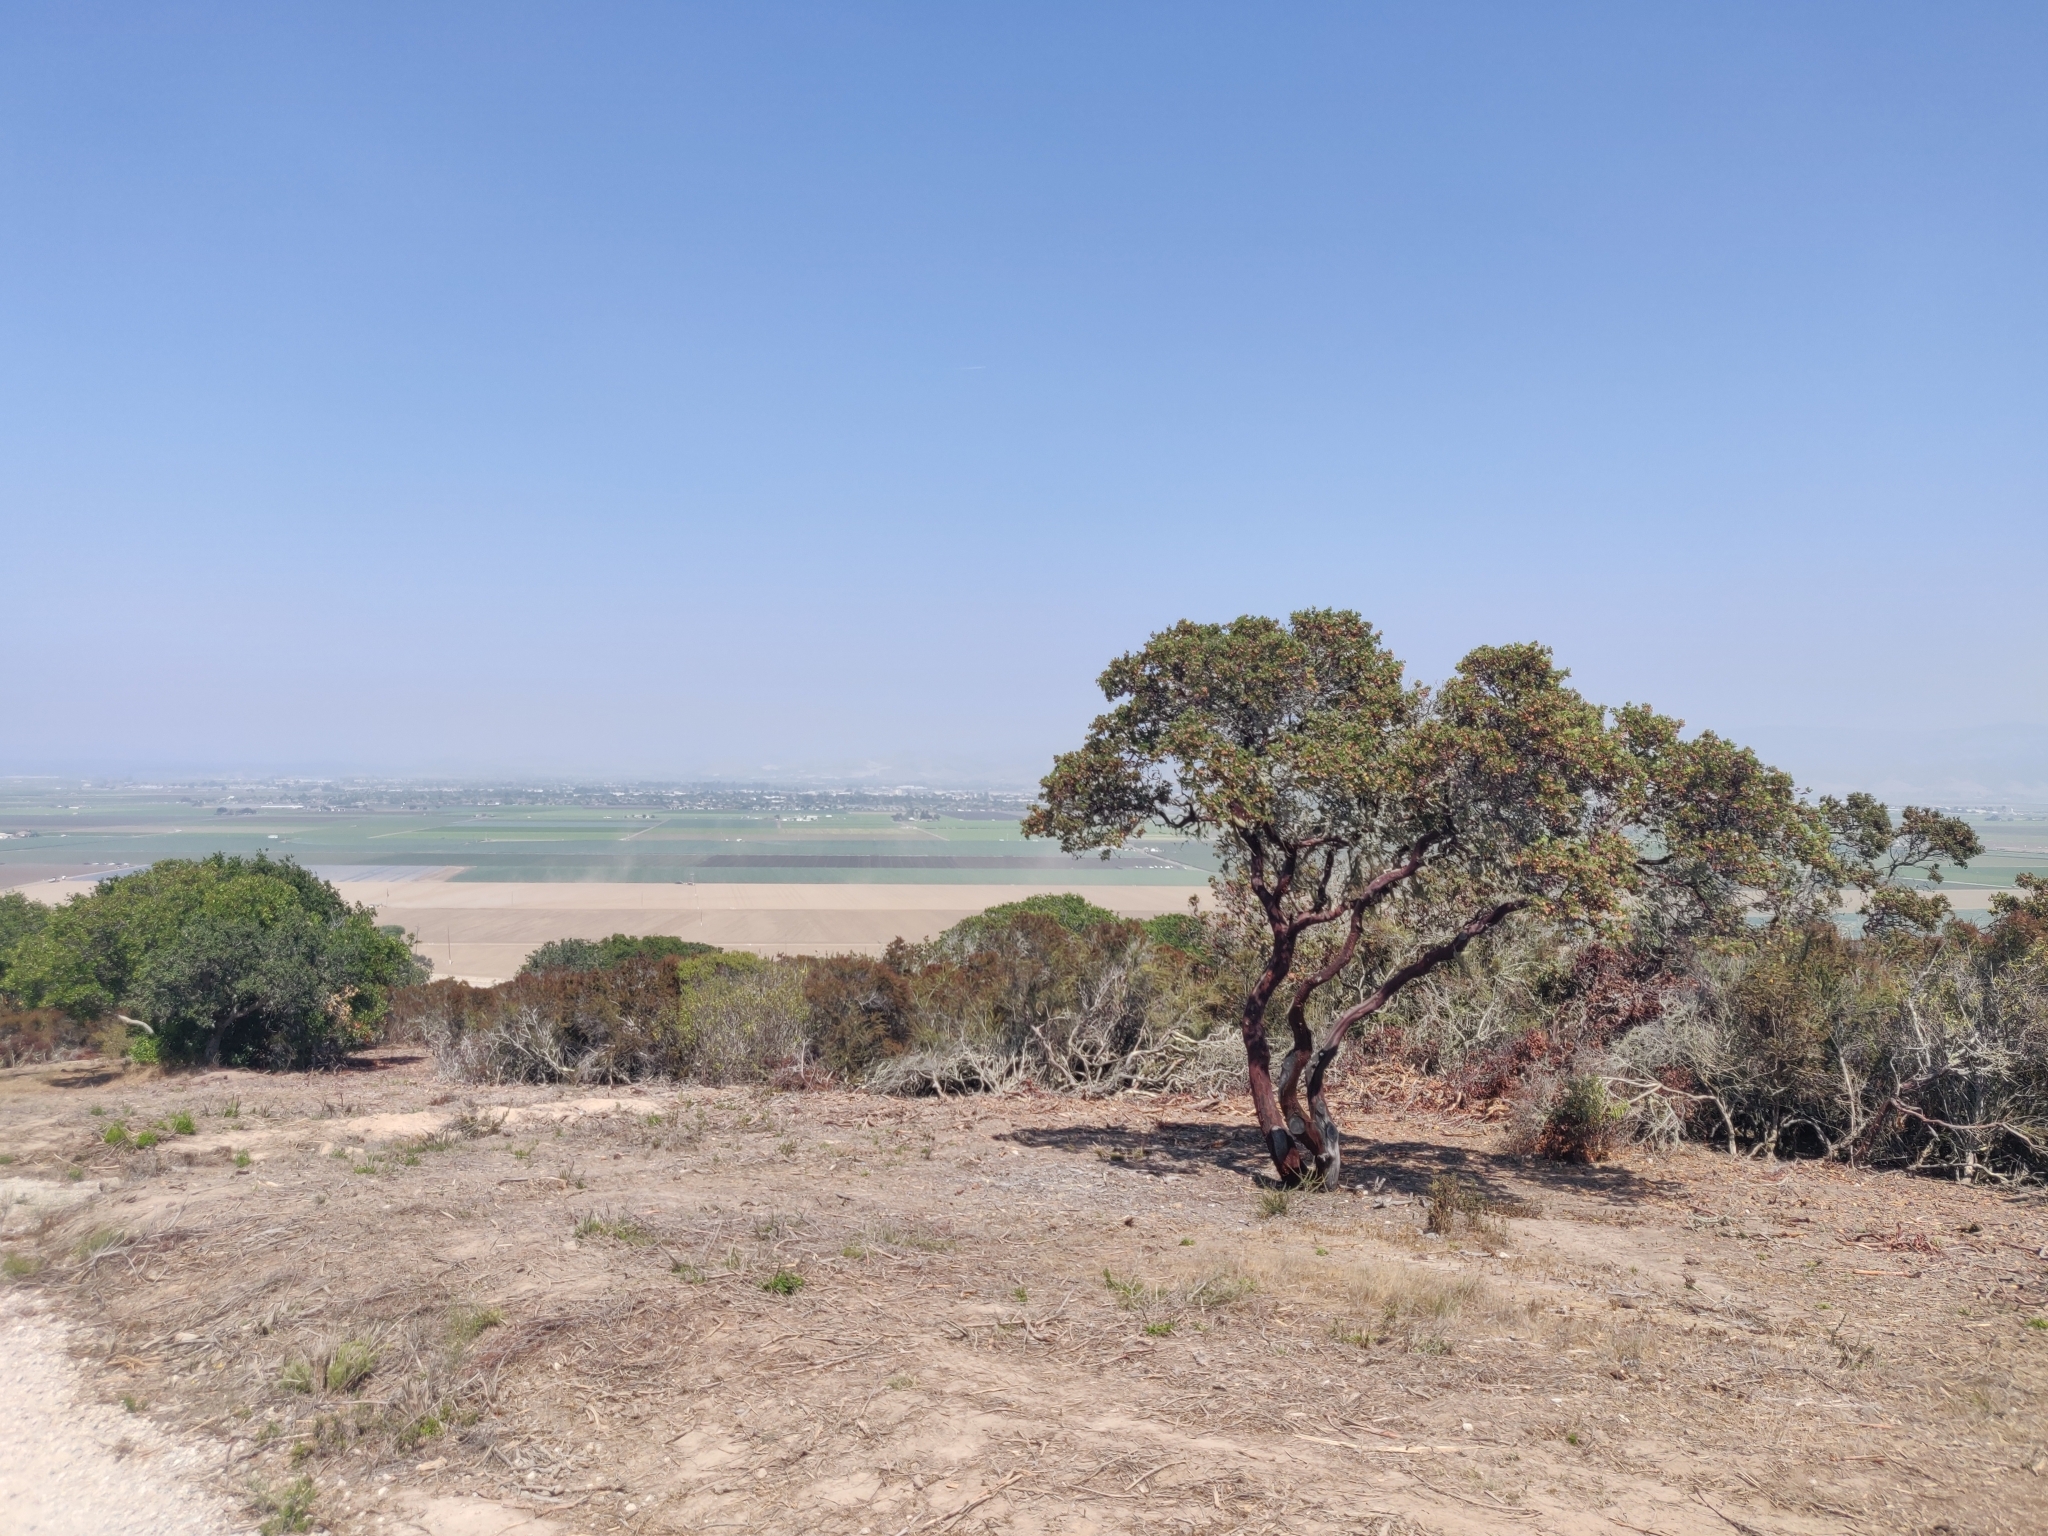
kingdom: Plantae
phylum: Tracheophyta
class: Magnoliopsida
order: Ericales
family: Ericaceae
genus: Arctostaphylos
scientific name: Arctostaphylos montereyensis
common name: Monterey manzanita
